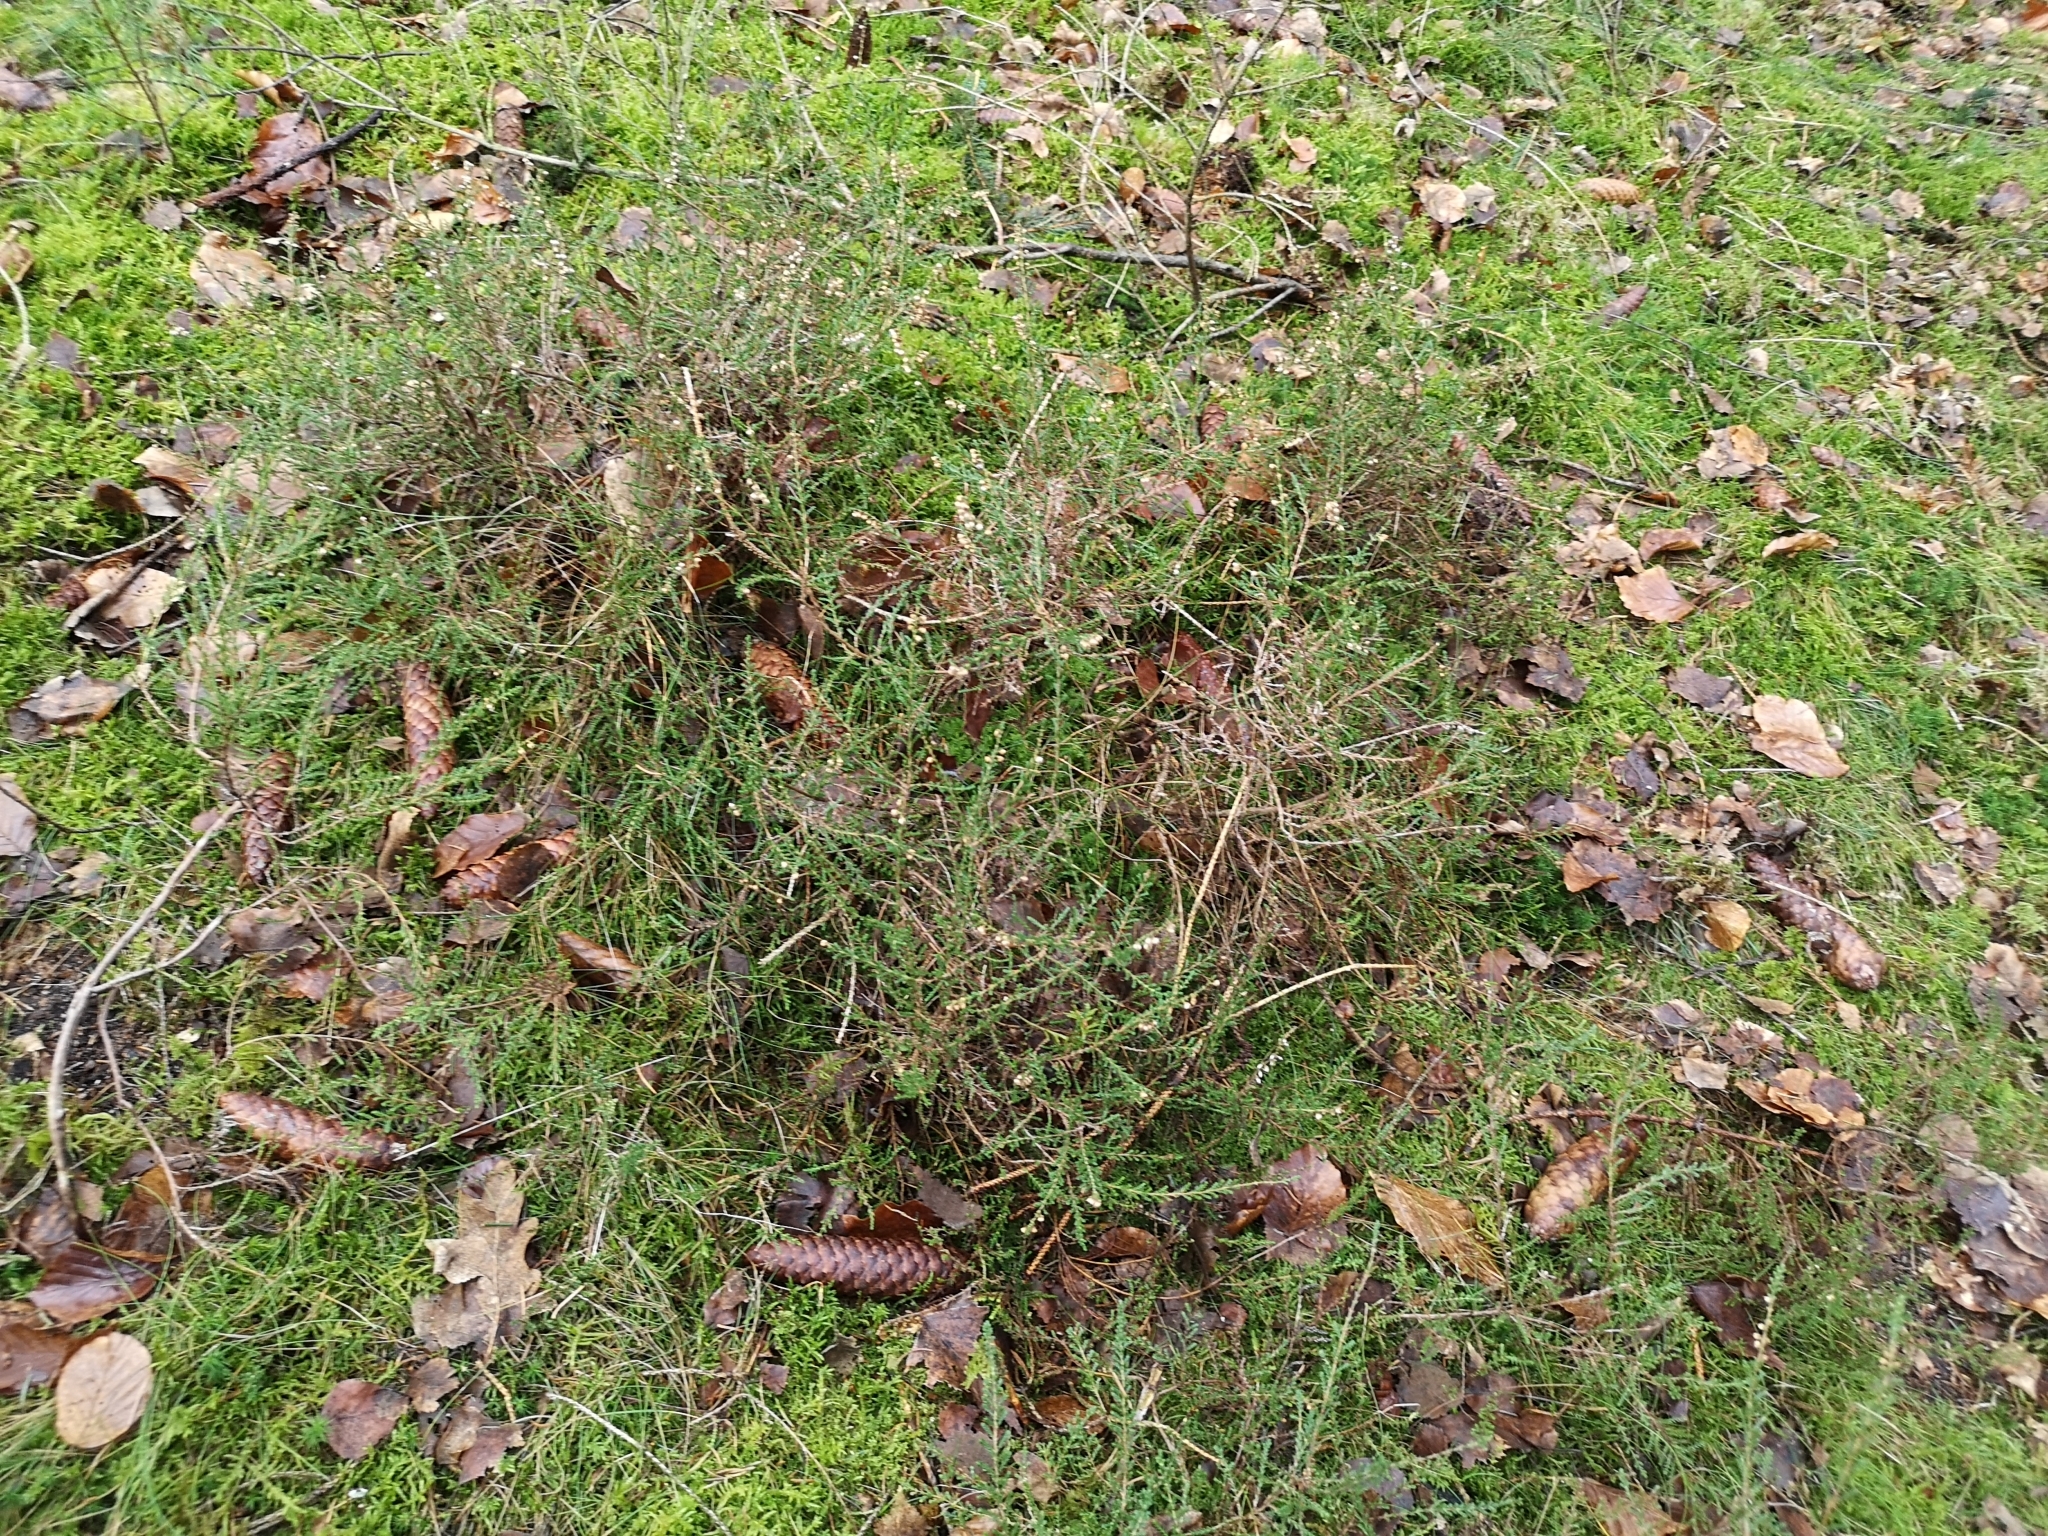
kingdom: Plantae
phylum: Tracheophyta
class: Magnoliopsida
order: Ericales
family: Ericaceae
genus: Calluna
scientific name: Calluna vulgaris
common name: Heather
